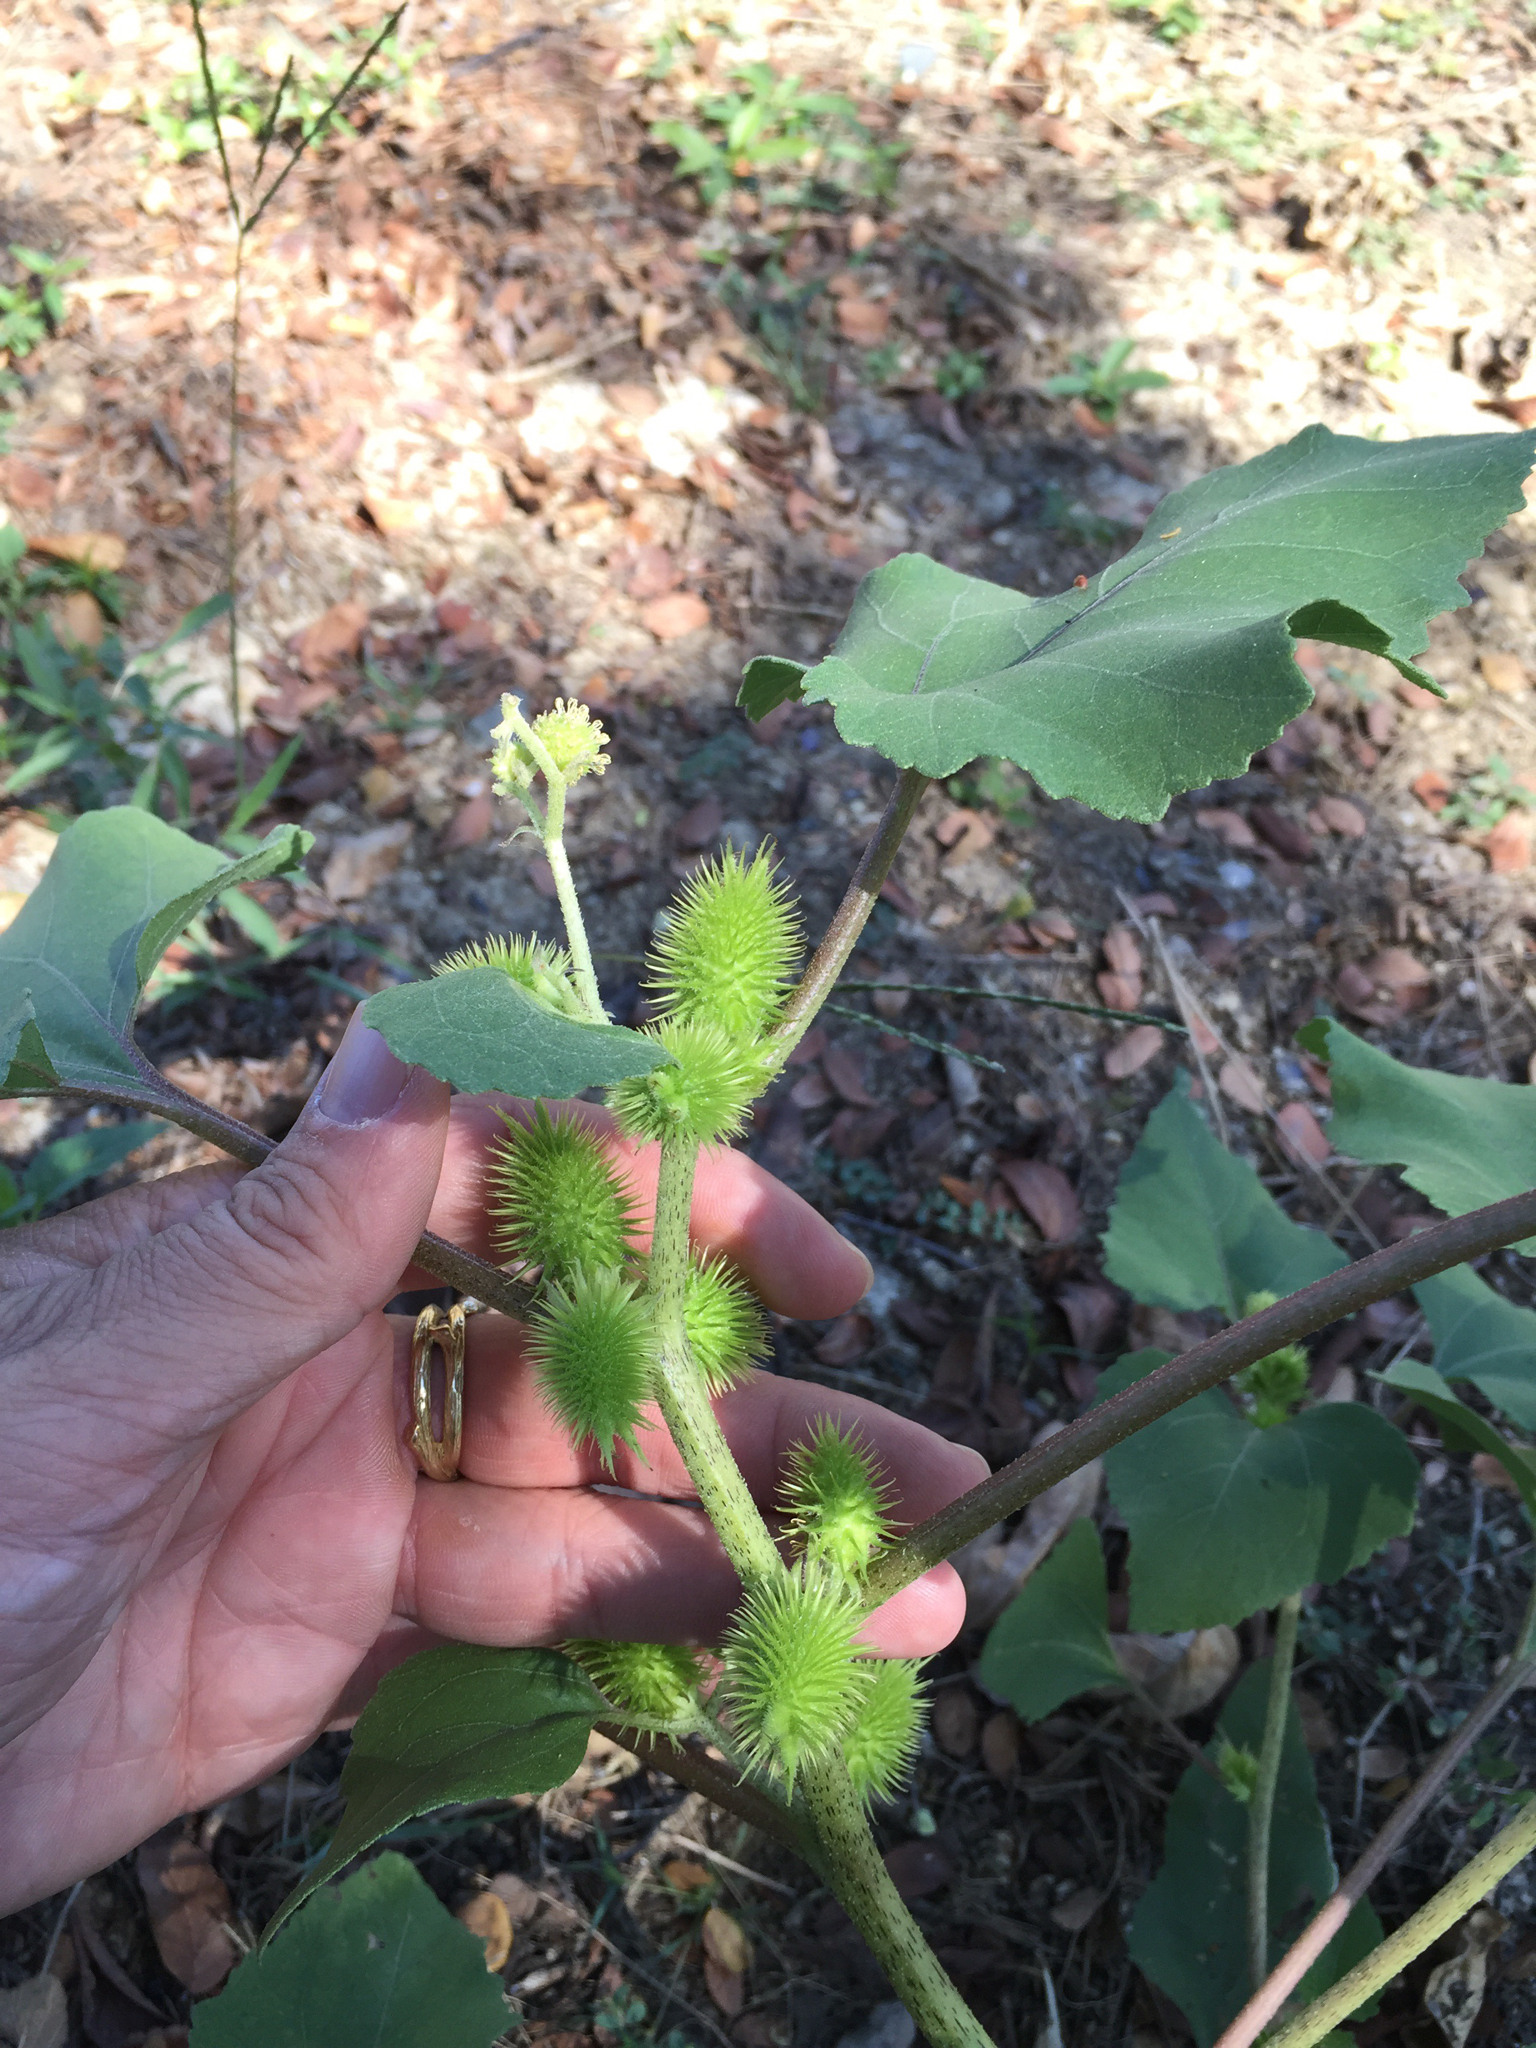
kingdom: Plantae
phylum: Tracheophyta
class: Magnoliopsida
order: Asterales
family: Asteraceae
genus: Xanthium
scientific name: Xanthium strumarium
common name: Rough cocklebur
